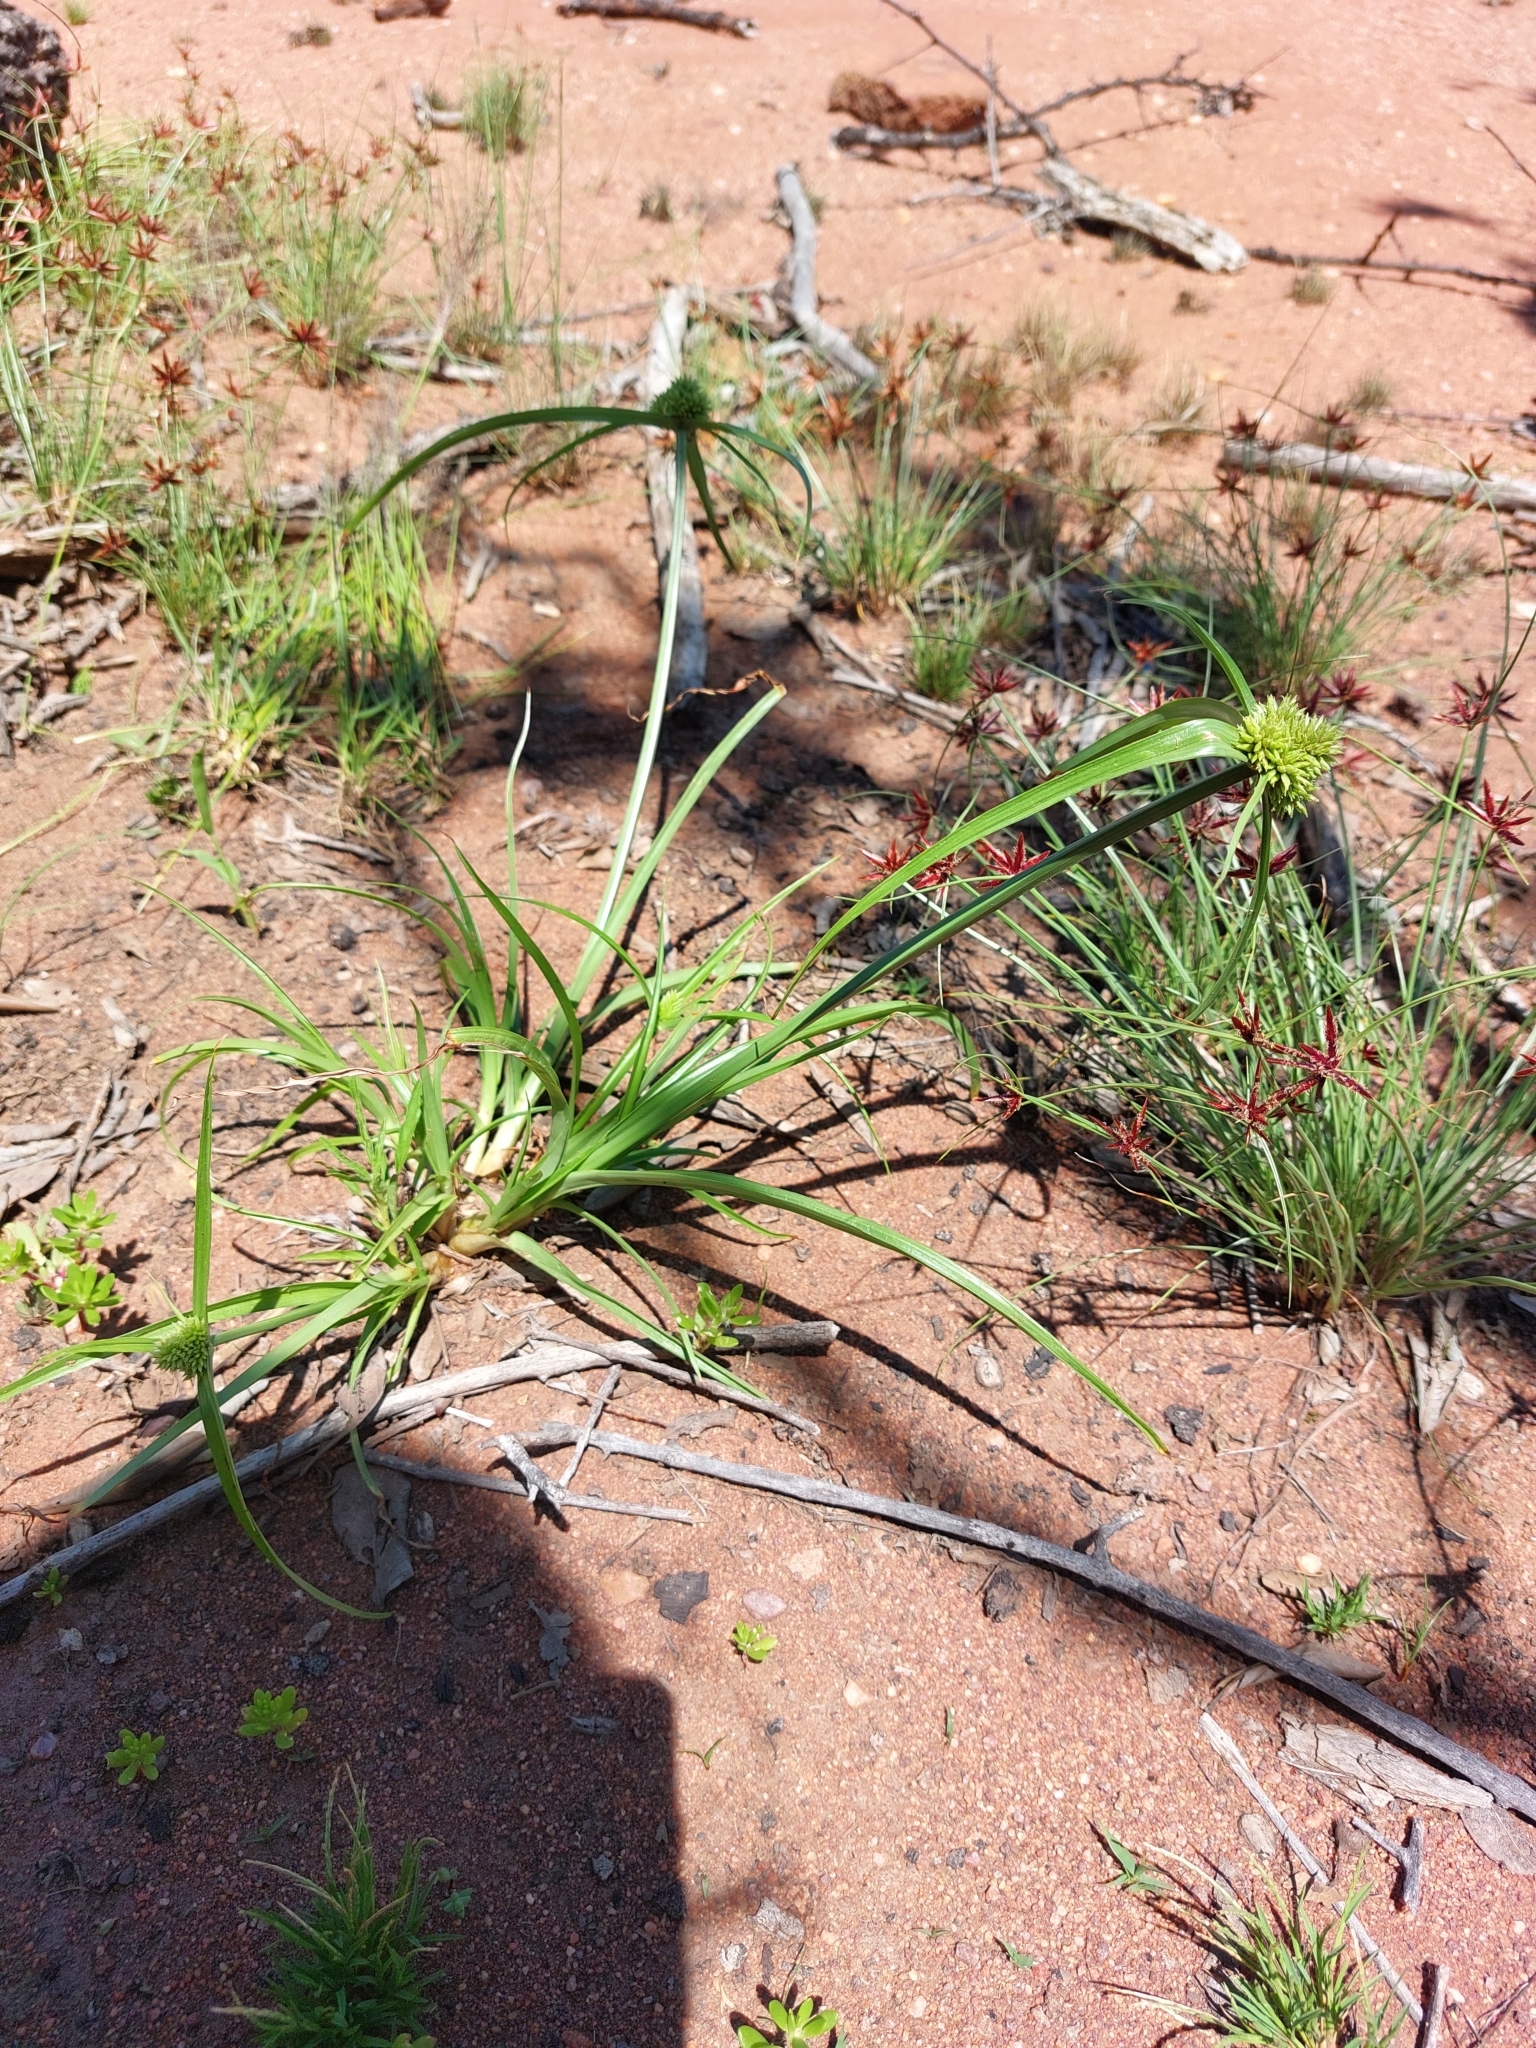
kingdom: Plantae
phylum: Tracheophyta
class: Liliopsida
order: Poales
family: Cyperaceae
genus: Cyperus
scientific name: Cyperus austroafricanus
